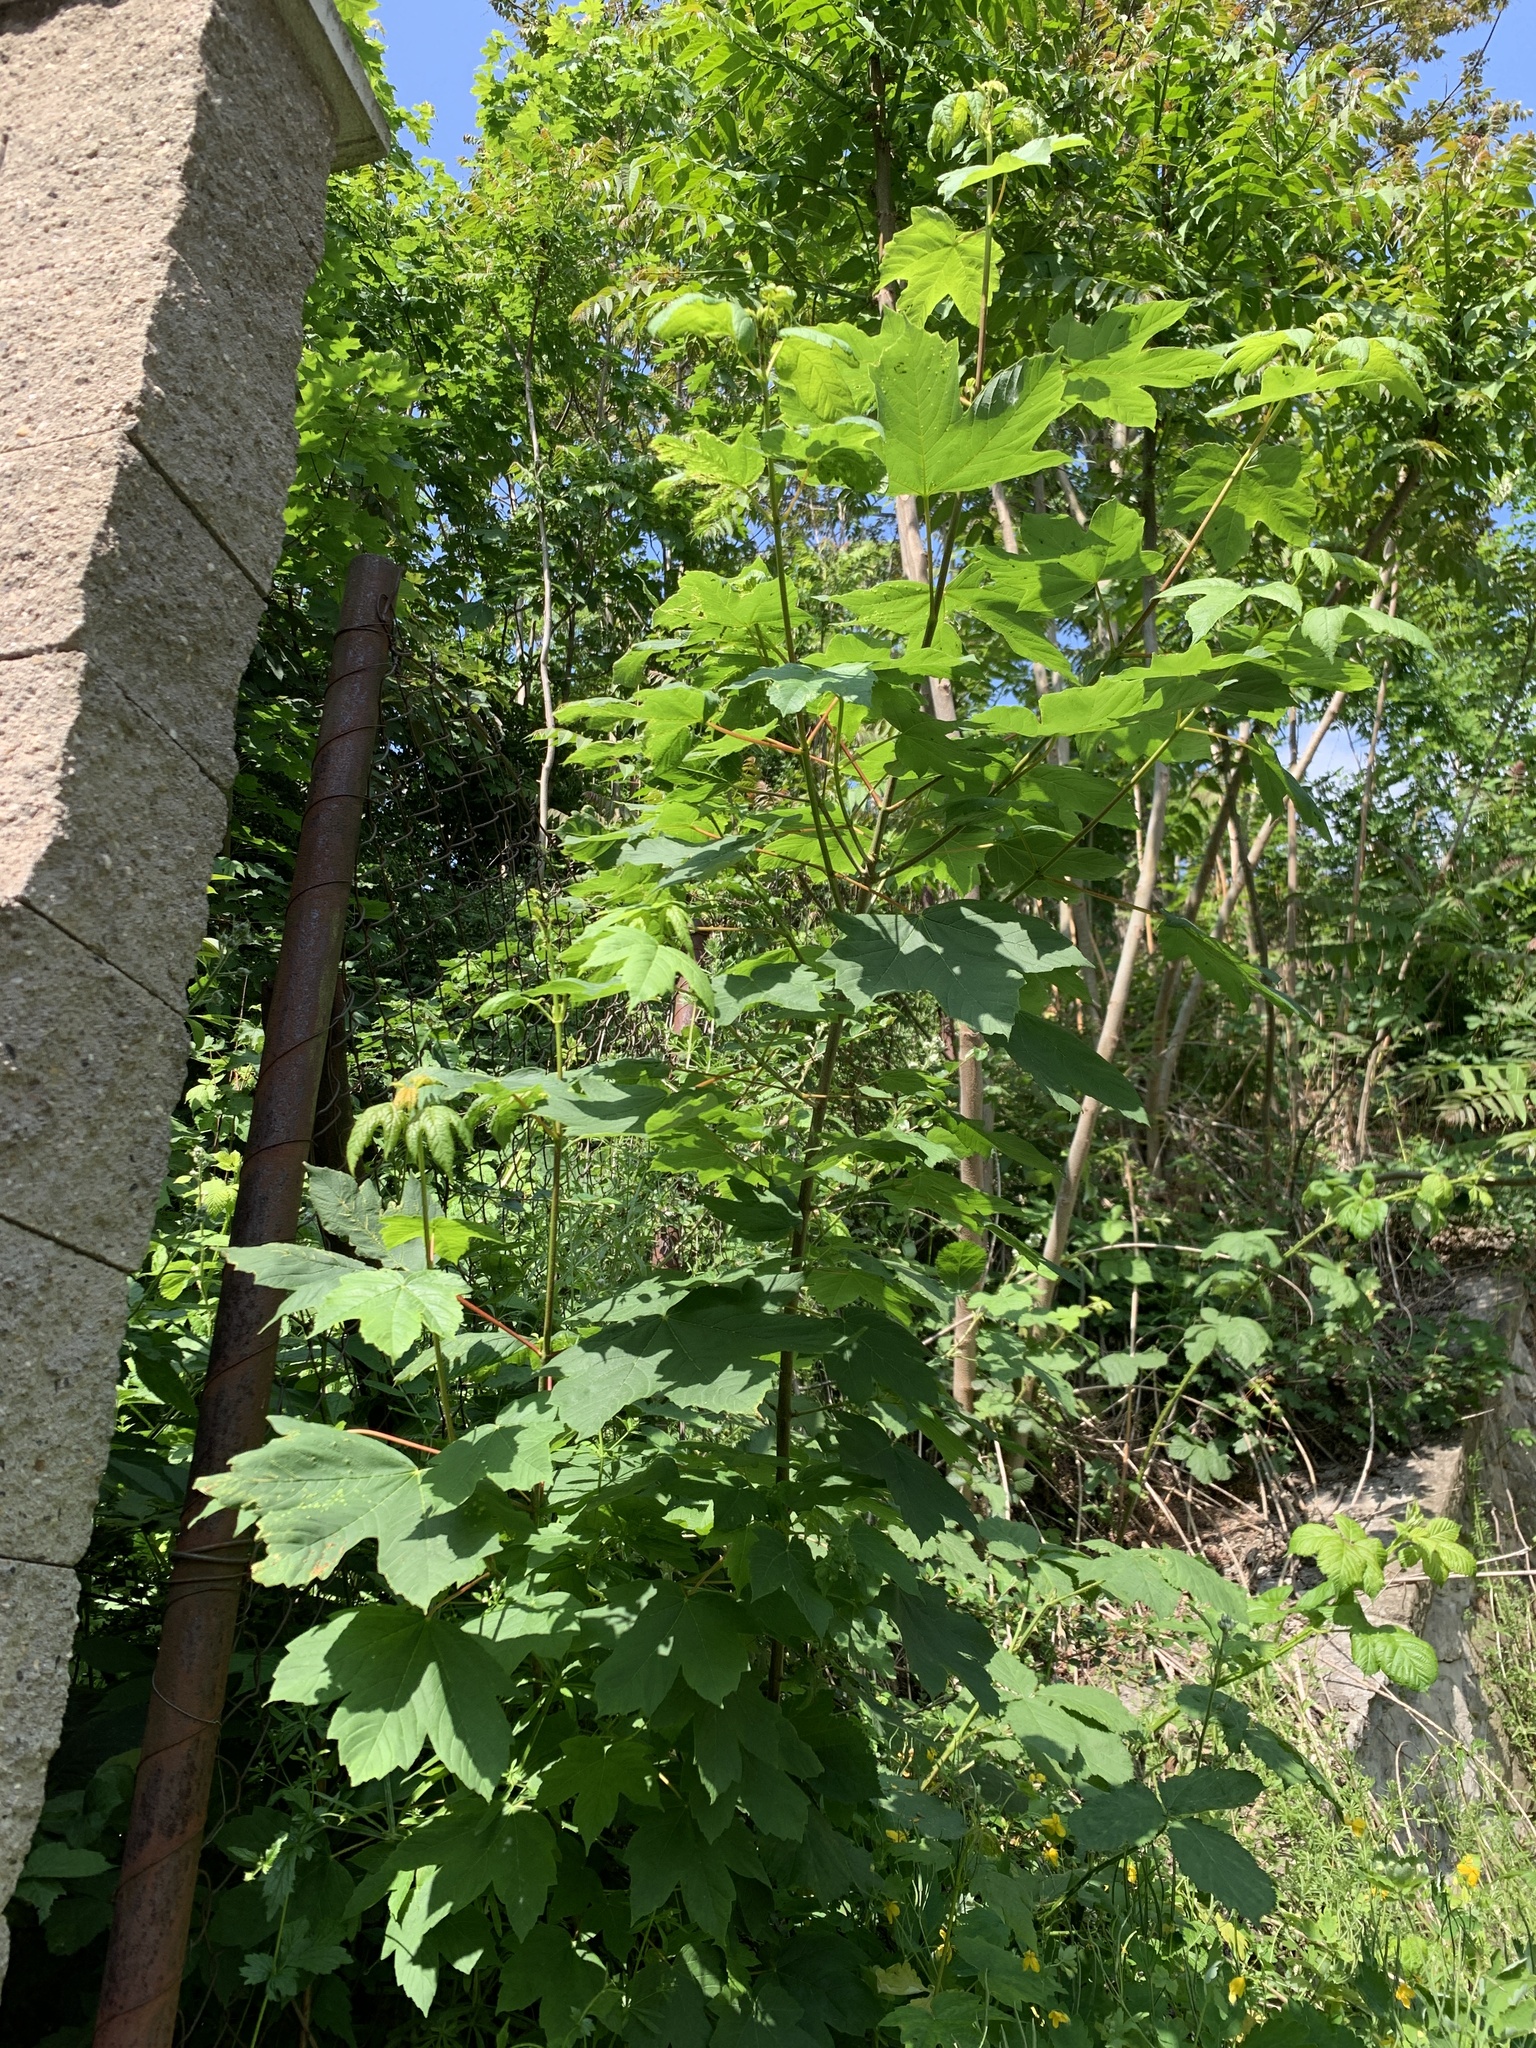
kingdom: Plantae
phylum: Tracheophyta
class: Magnoliopsida
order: Sapindales
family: Sapindaceae
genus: Acer
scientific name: Acer pseudoplatanus
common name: Sycamore
